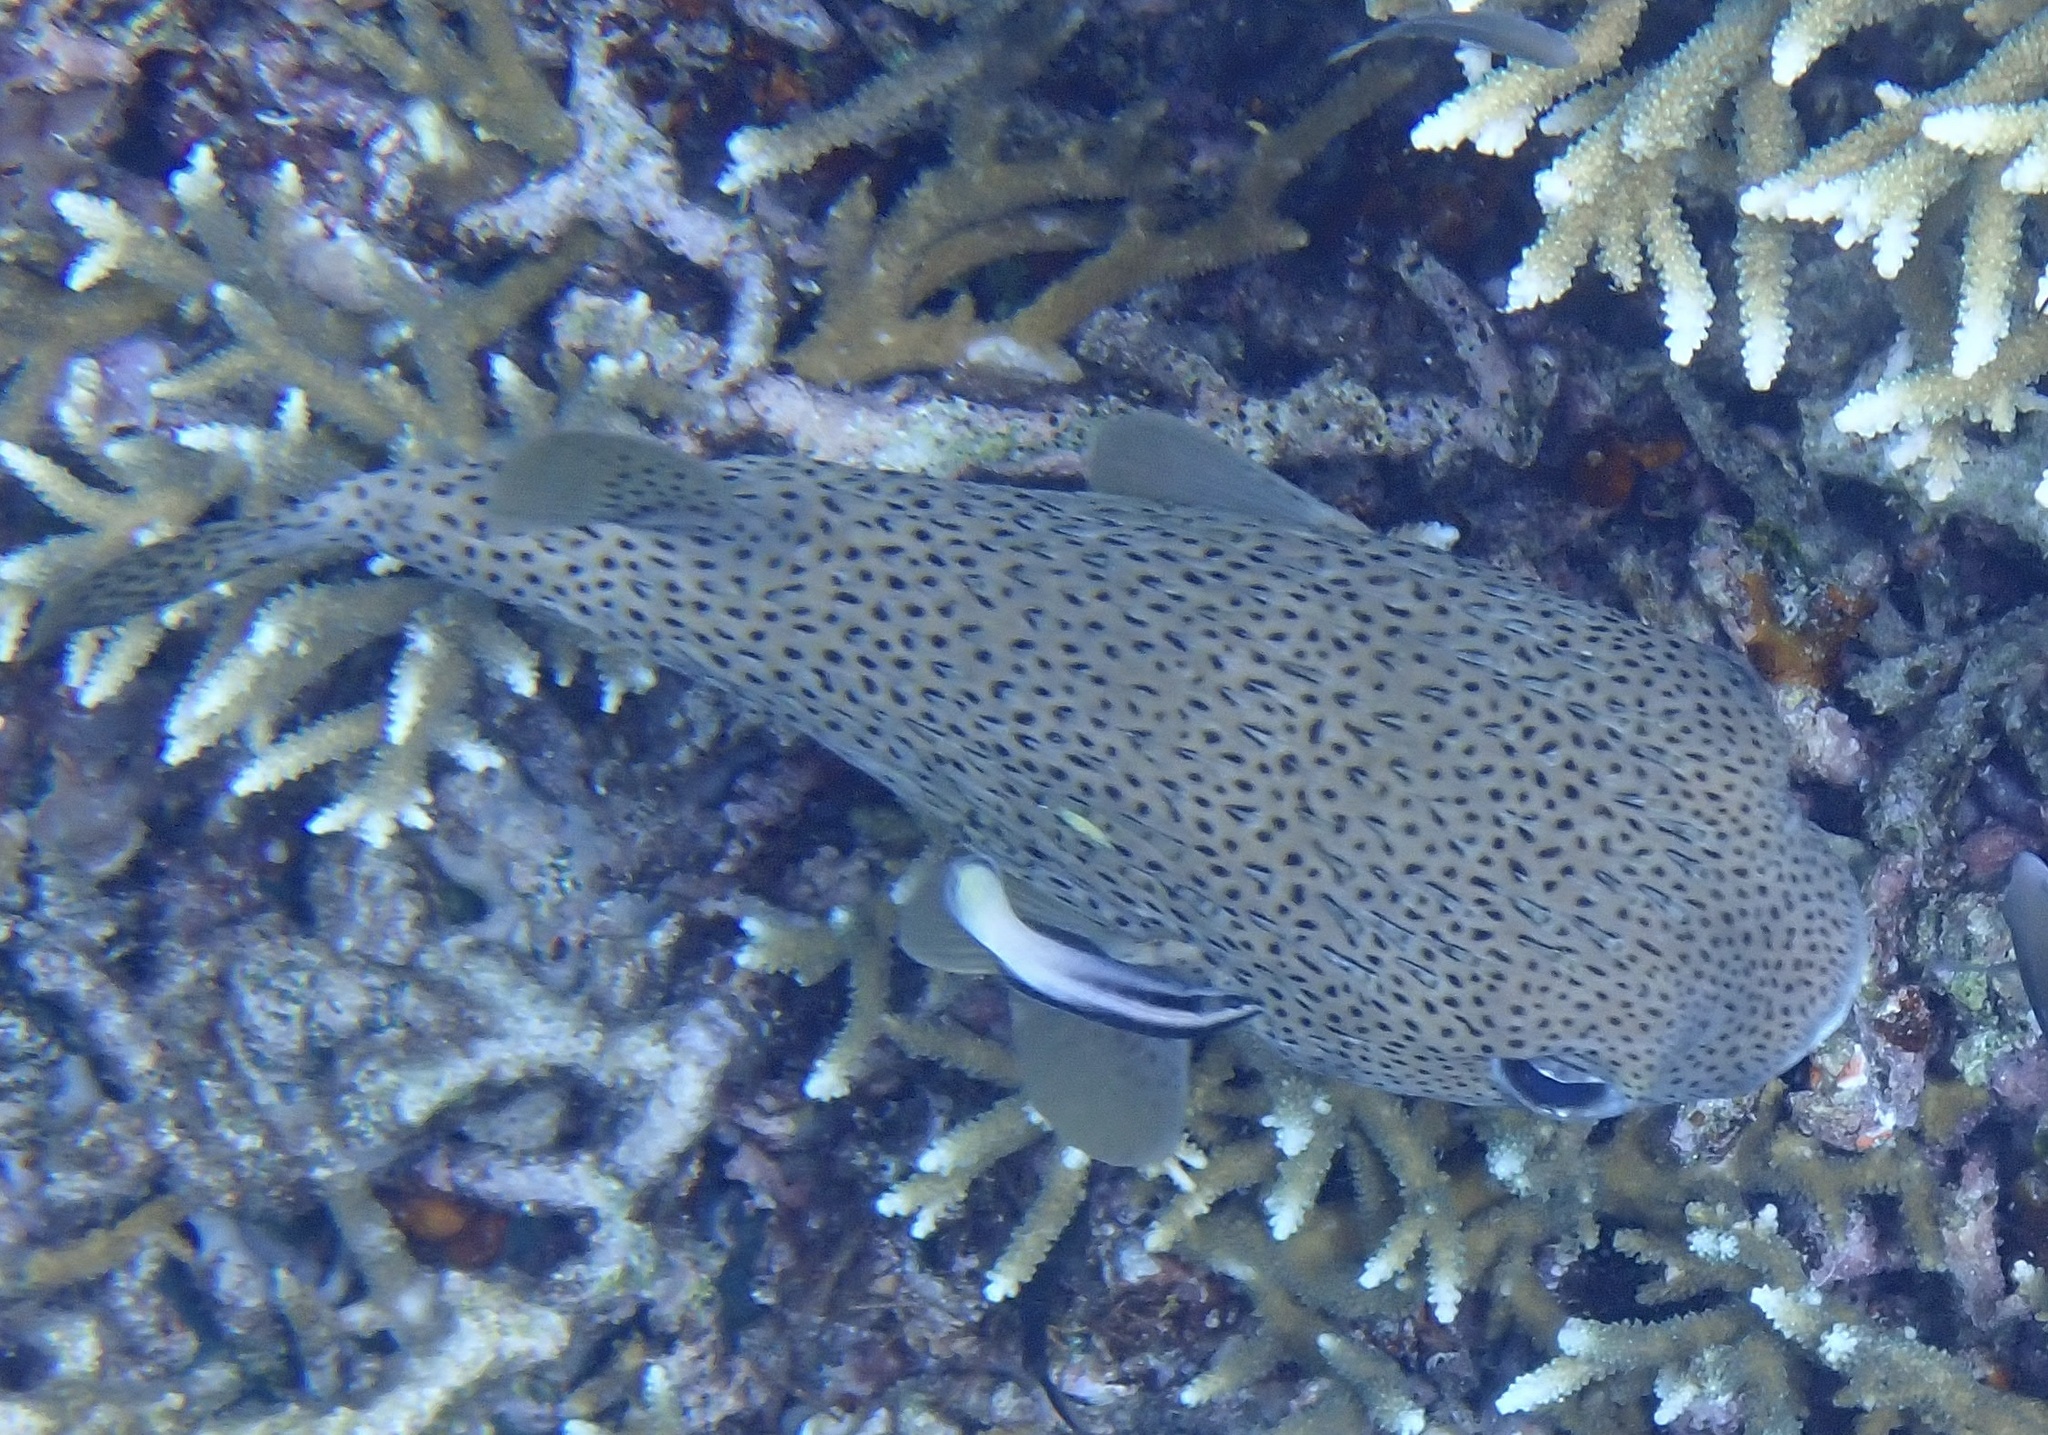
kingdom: Animalia
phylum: Chordata
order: Tetraodontiformes
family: Diodontidae
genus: Diodon
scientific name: Diodon hystrix
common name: Giant porcupinefish
